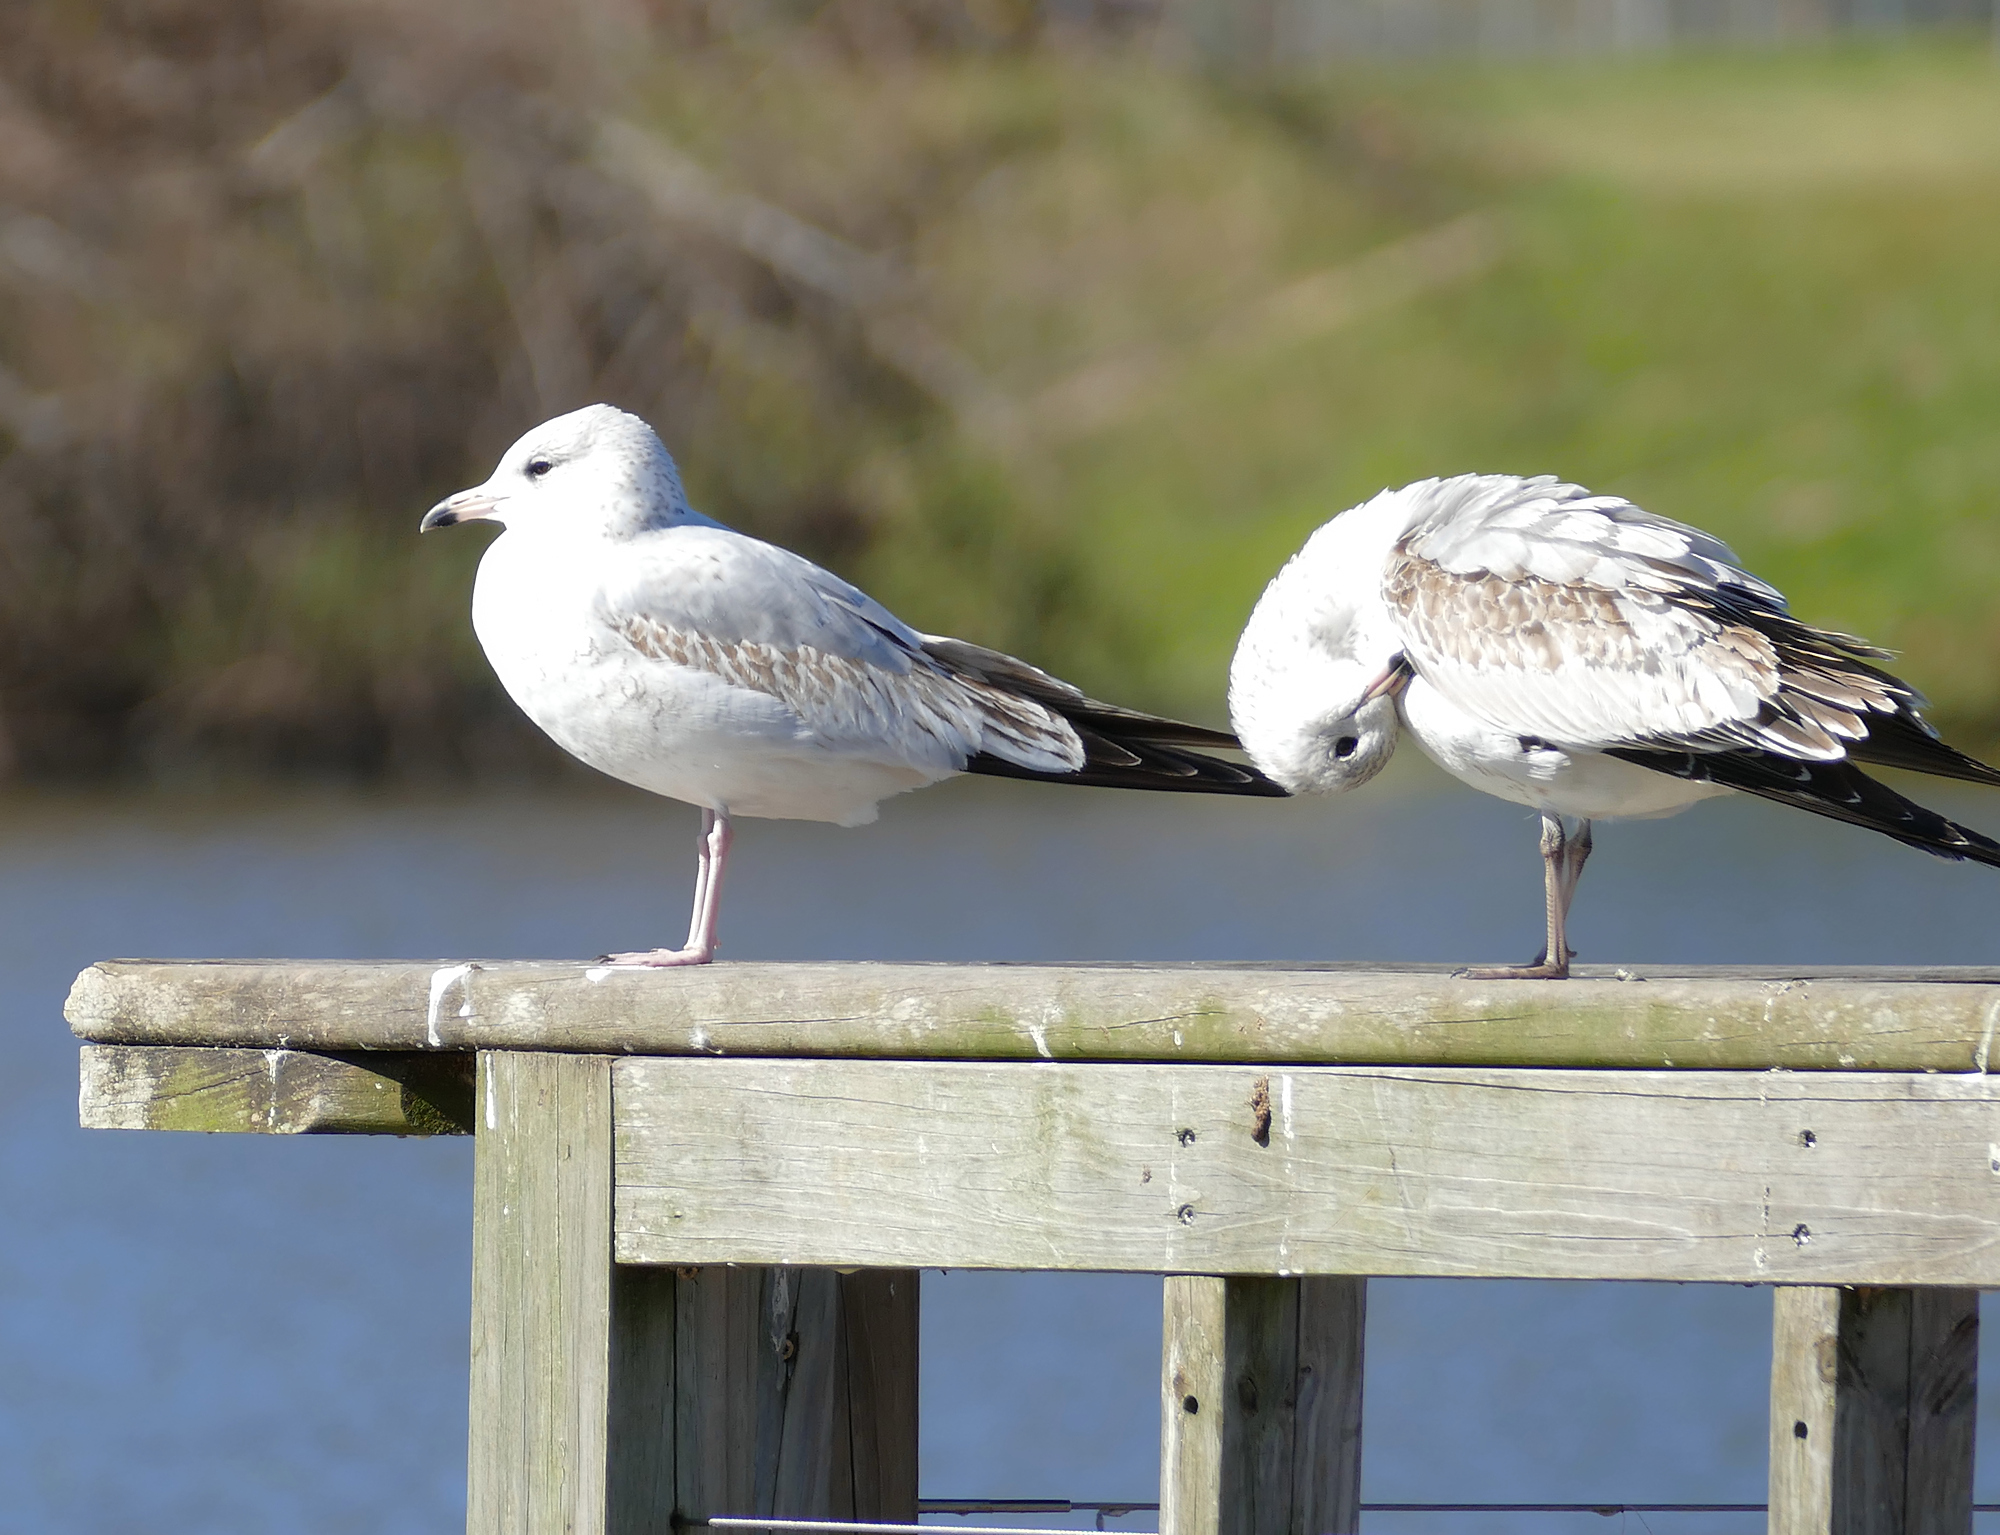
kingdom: Animalia
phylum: Chordata
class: Aves
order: Charadriiformes
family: Laridae
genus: Larus
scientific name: Larus delawarensis
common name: Ring-billed gull
